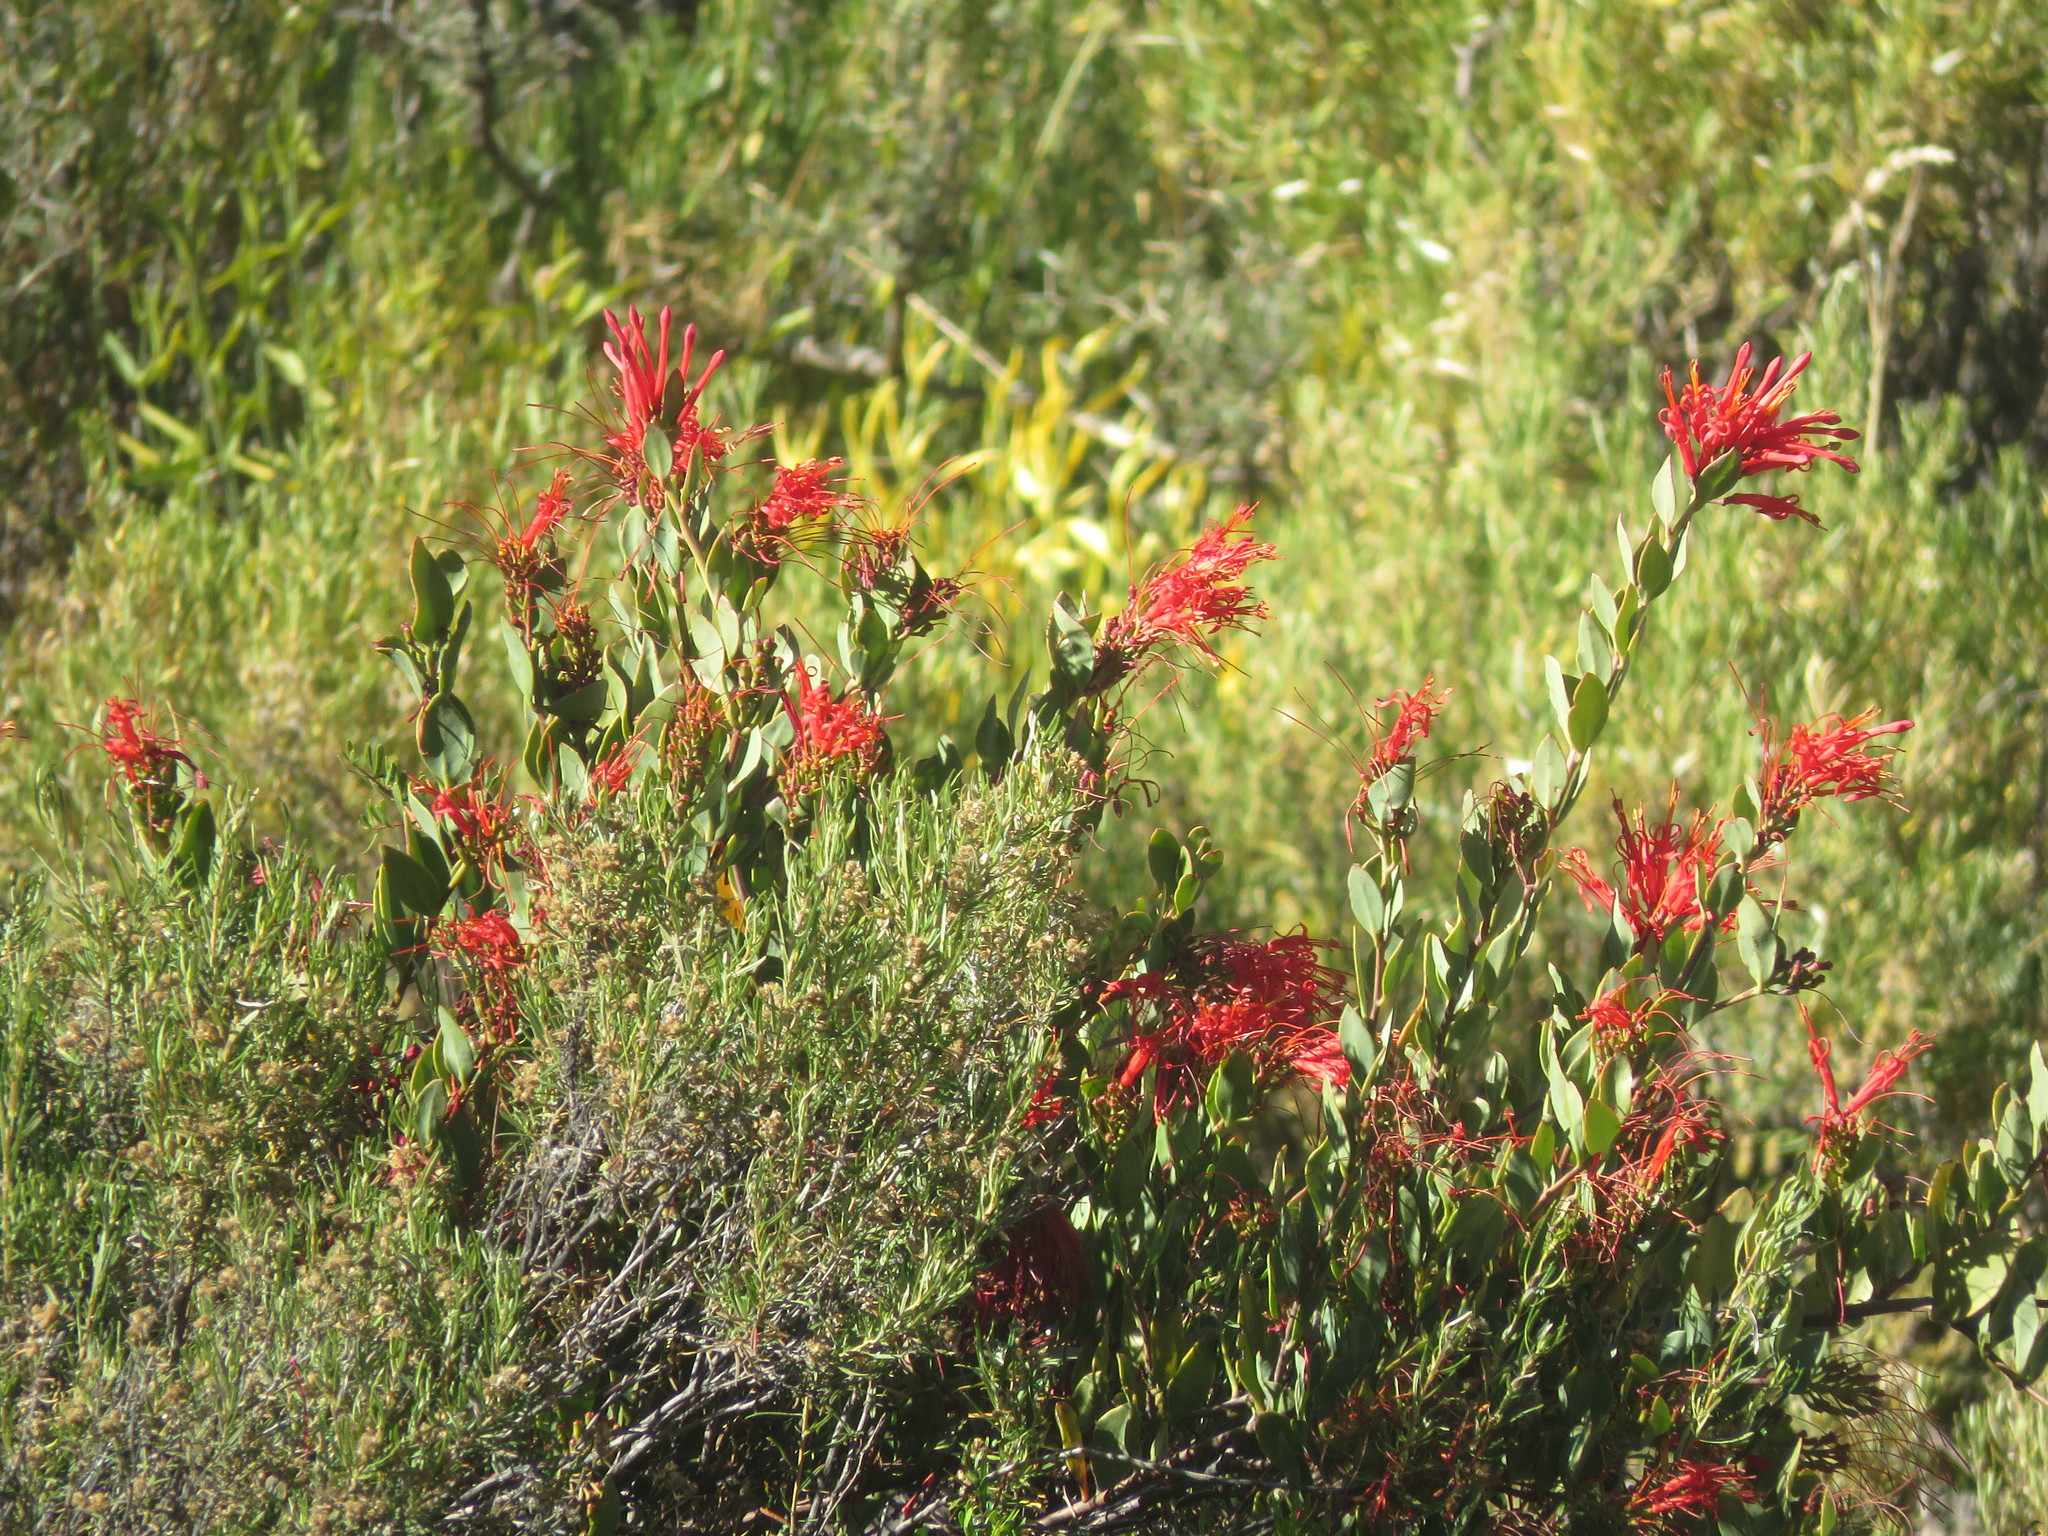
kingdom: Plantae
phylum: Tracheophyta
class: Magnoliopsida
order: Santalales
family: Loranthaceae
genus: Ligaria
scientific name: Ligaria cuneifolia
